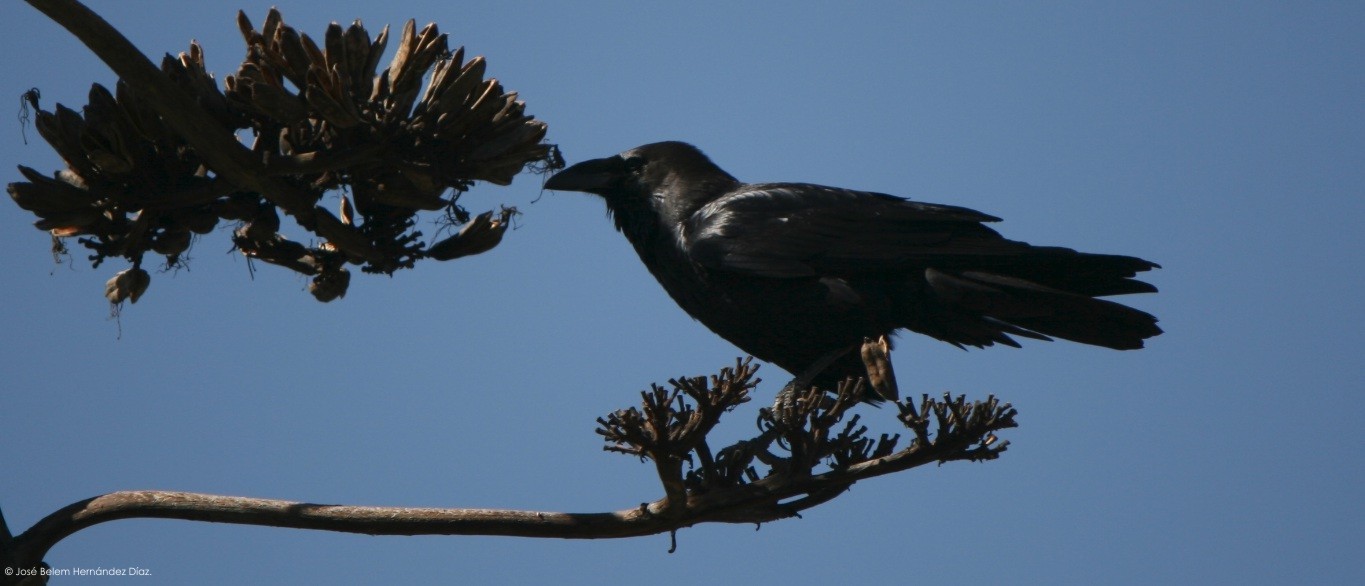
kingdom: Animalia
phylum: Chordata
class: Aves
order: Passeriformes
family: Corvidae
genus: Corvus
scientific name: Corvus corax
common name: Common raven
